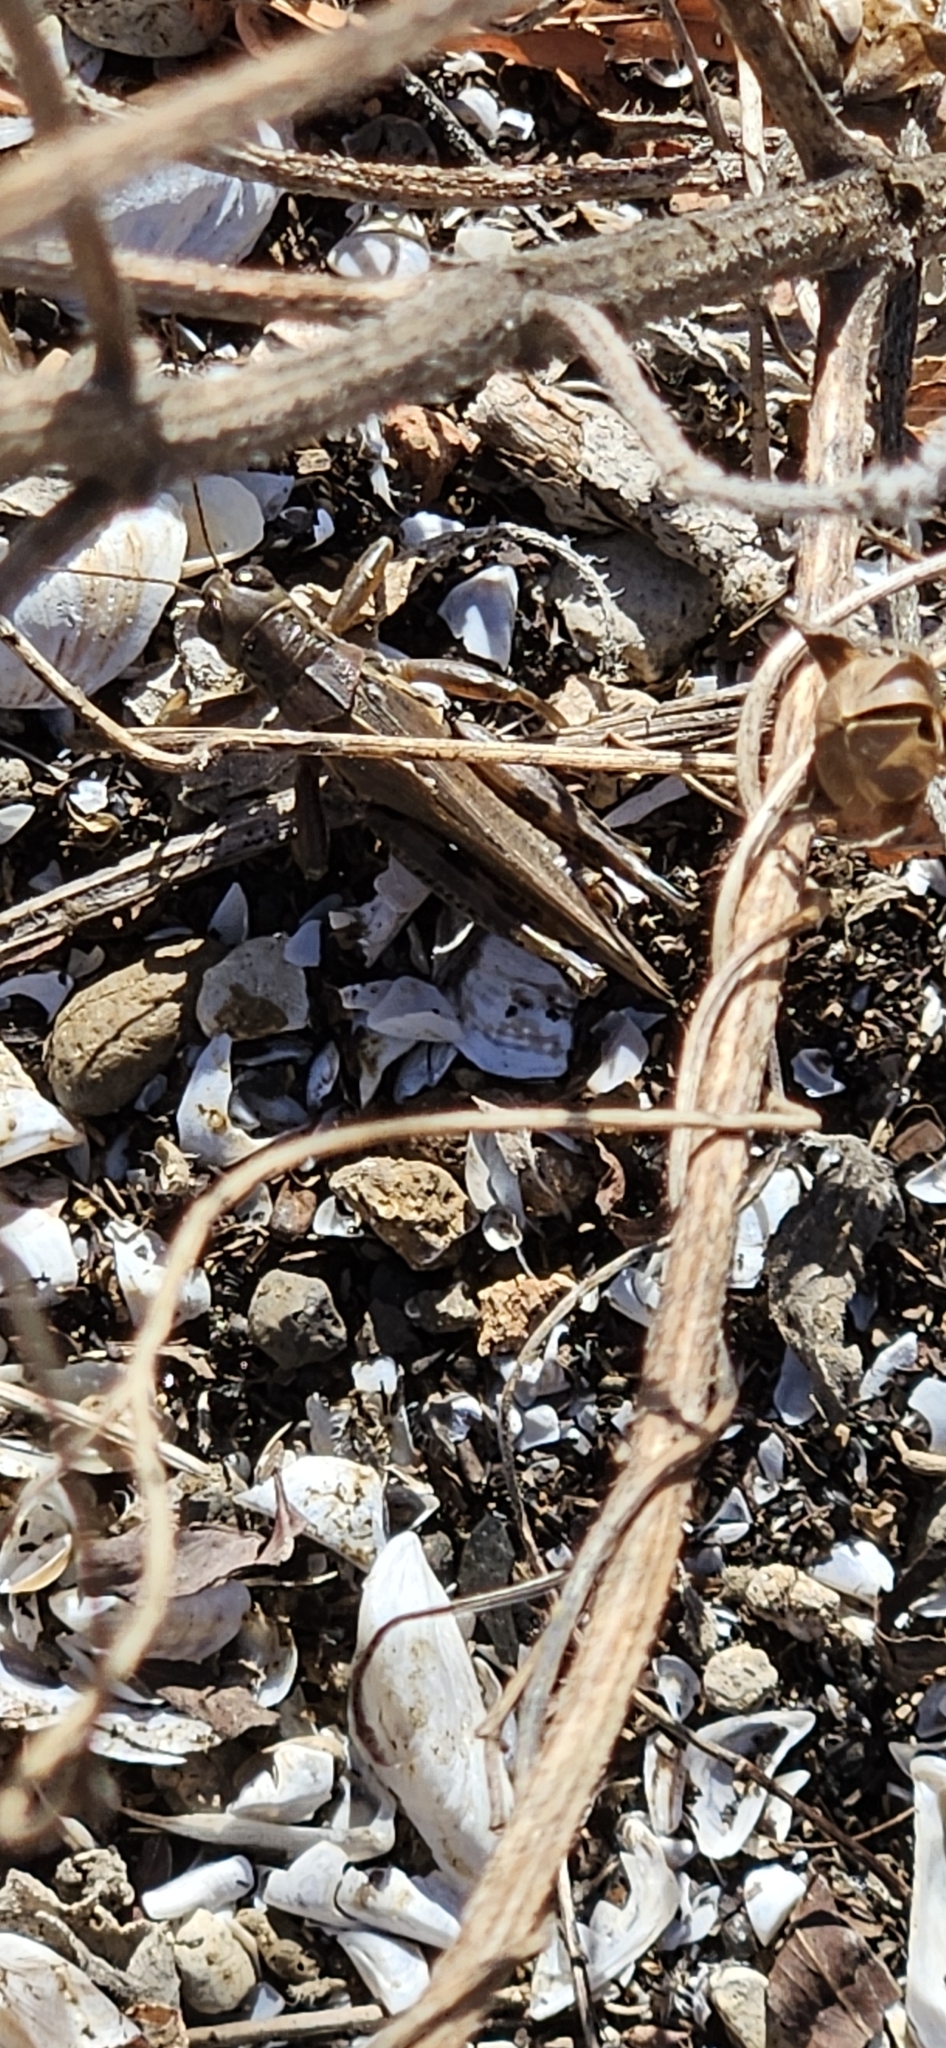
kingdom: Animalia
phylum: Arthropoda
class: Insecta
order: Orthoptera
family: Acrididae
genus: Melanoplus
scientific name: Melanoplus differentialis
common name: Differential grasshopper
